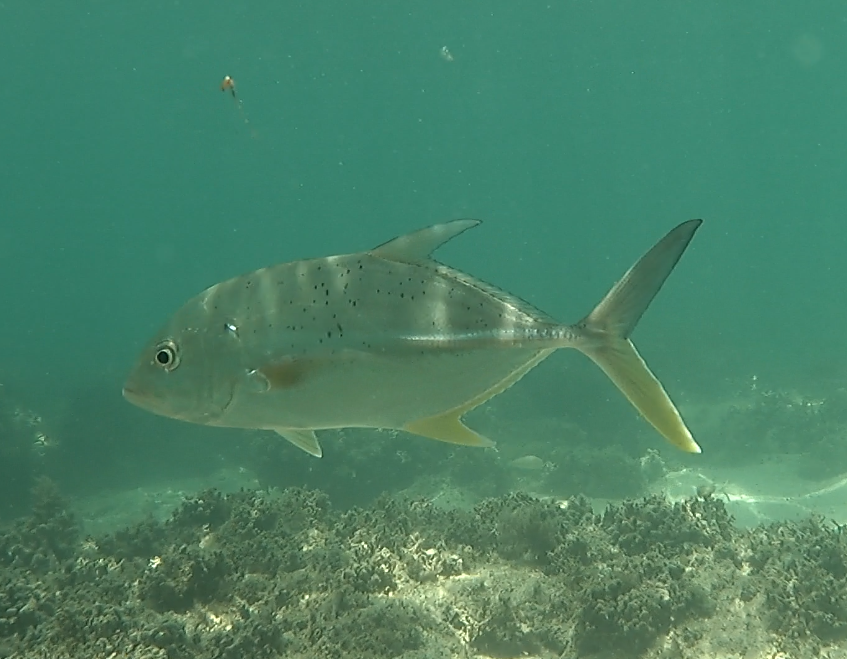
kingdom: Animalia
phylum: Chordata
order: Perciformes
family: Carangidae
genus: Caranx
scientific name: Caranx papuensis
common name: Brassy trevally
